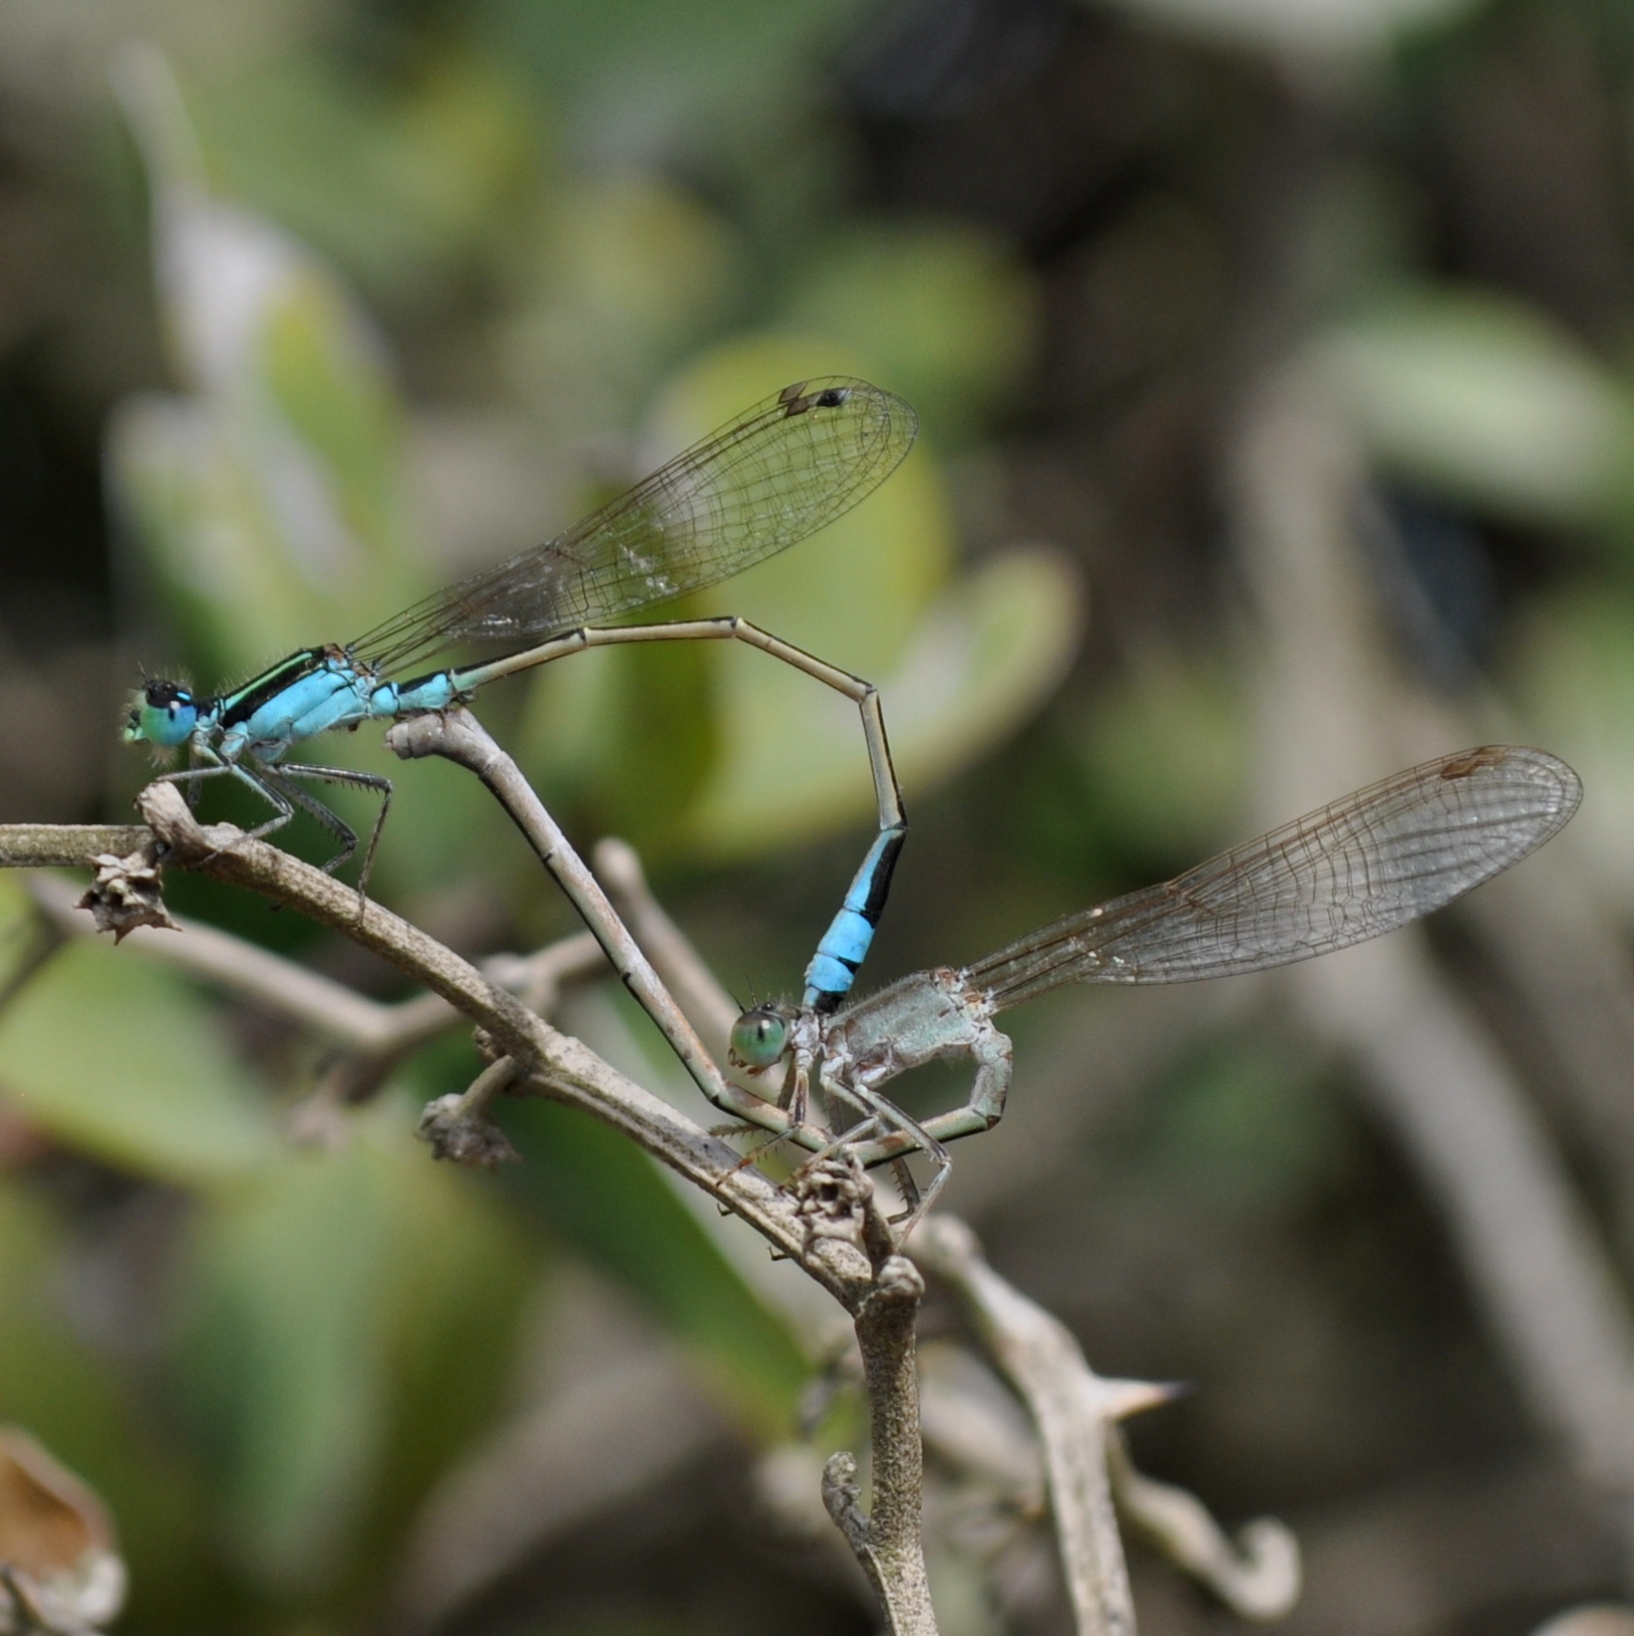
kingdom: Animalia
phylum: Arthropoda
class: Insecta
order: Odonata
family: Coenagrionidae
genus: Ischnura
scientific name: Ischnura fluviatilis
